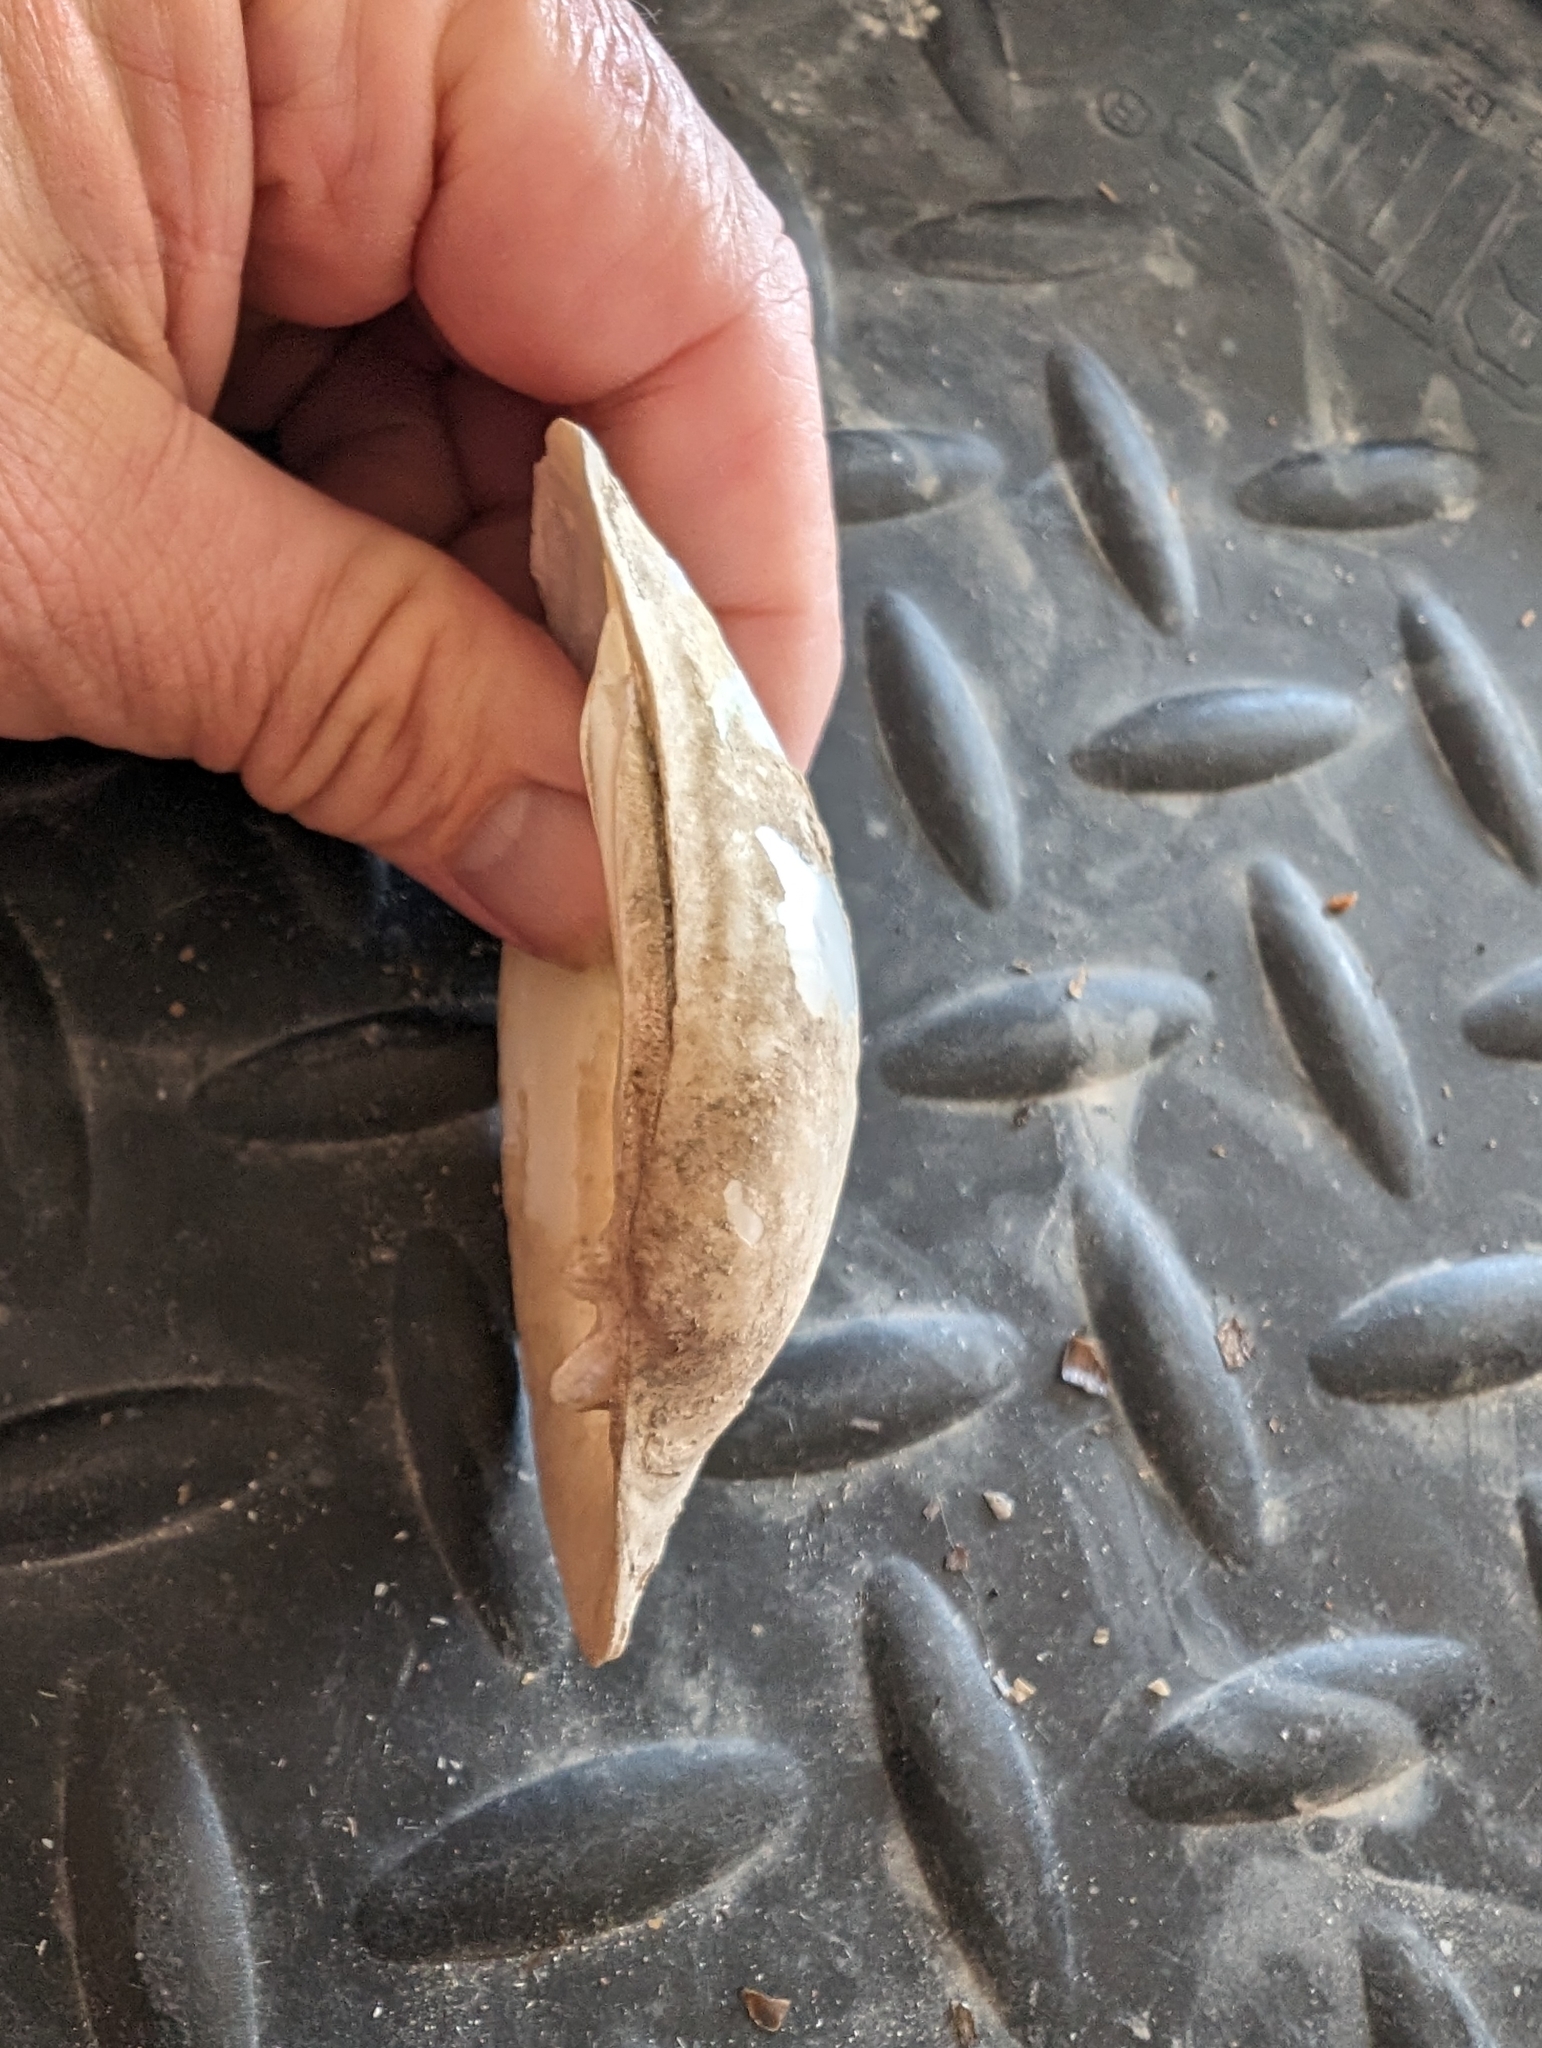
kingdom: Animalia
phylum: Mollusca
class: Bivalvia
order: Unionida
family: Unionidae
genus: Lampsilis
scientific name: Lampsilis cardium
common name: Plain pocketbook
